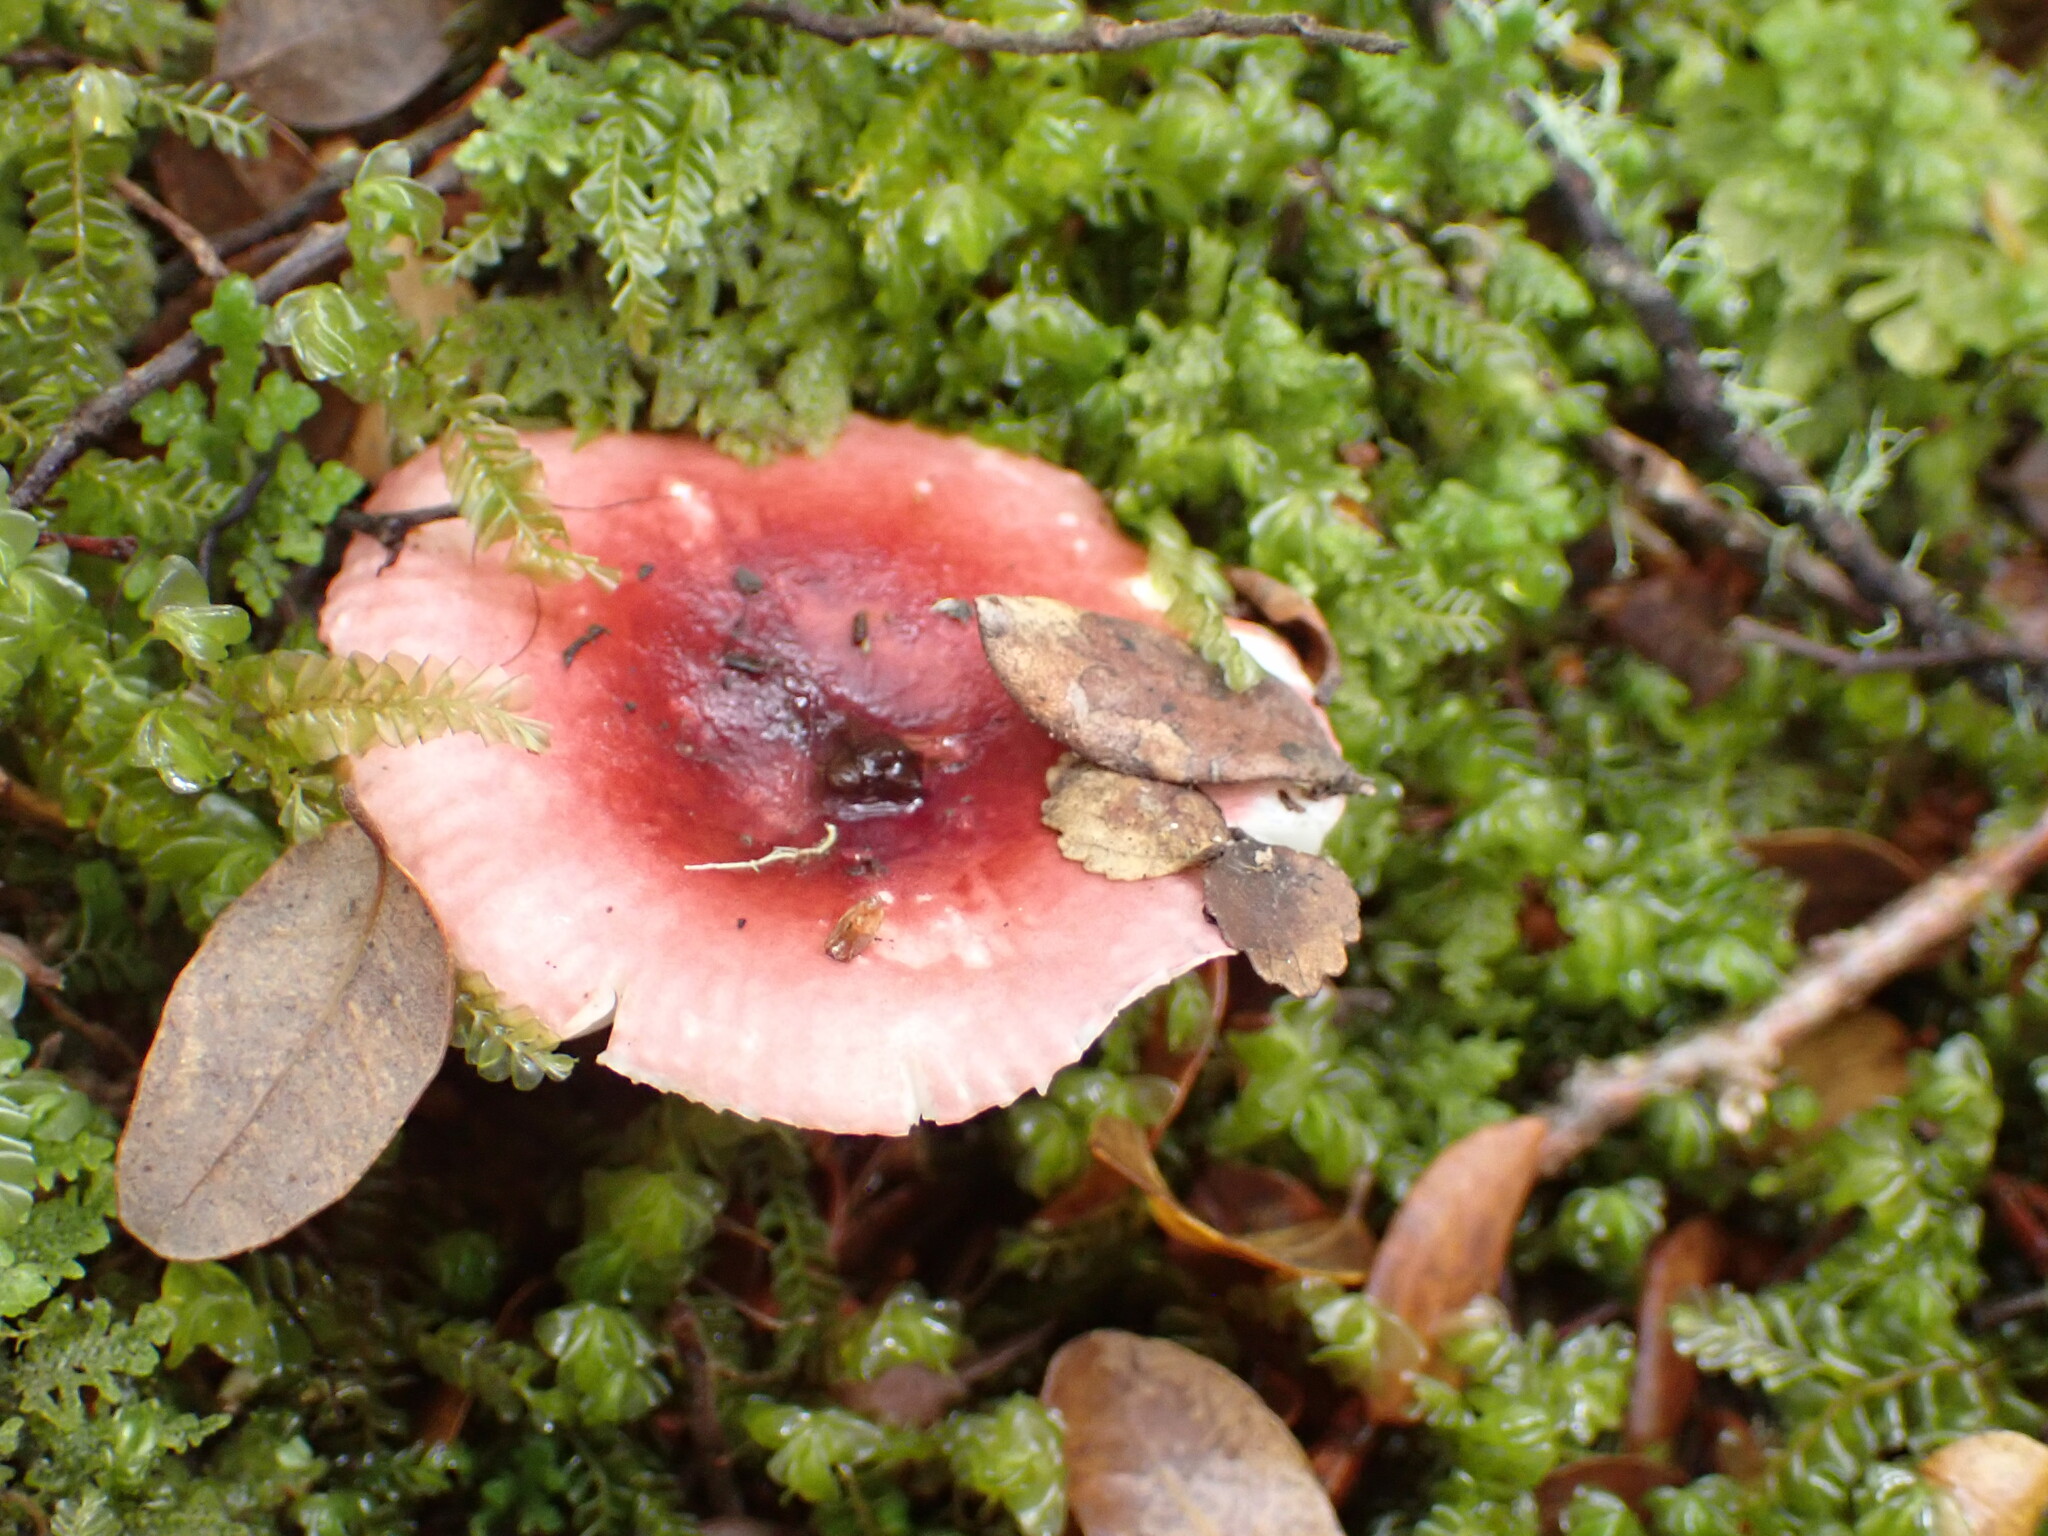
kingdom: Fungi
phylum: Basidiomycota
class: Agaricomycetes
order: Russulales
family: Russulaceae
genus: Russula
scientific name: Russula roseopileata
